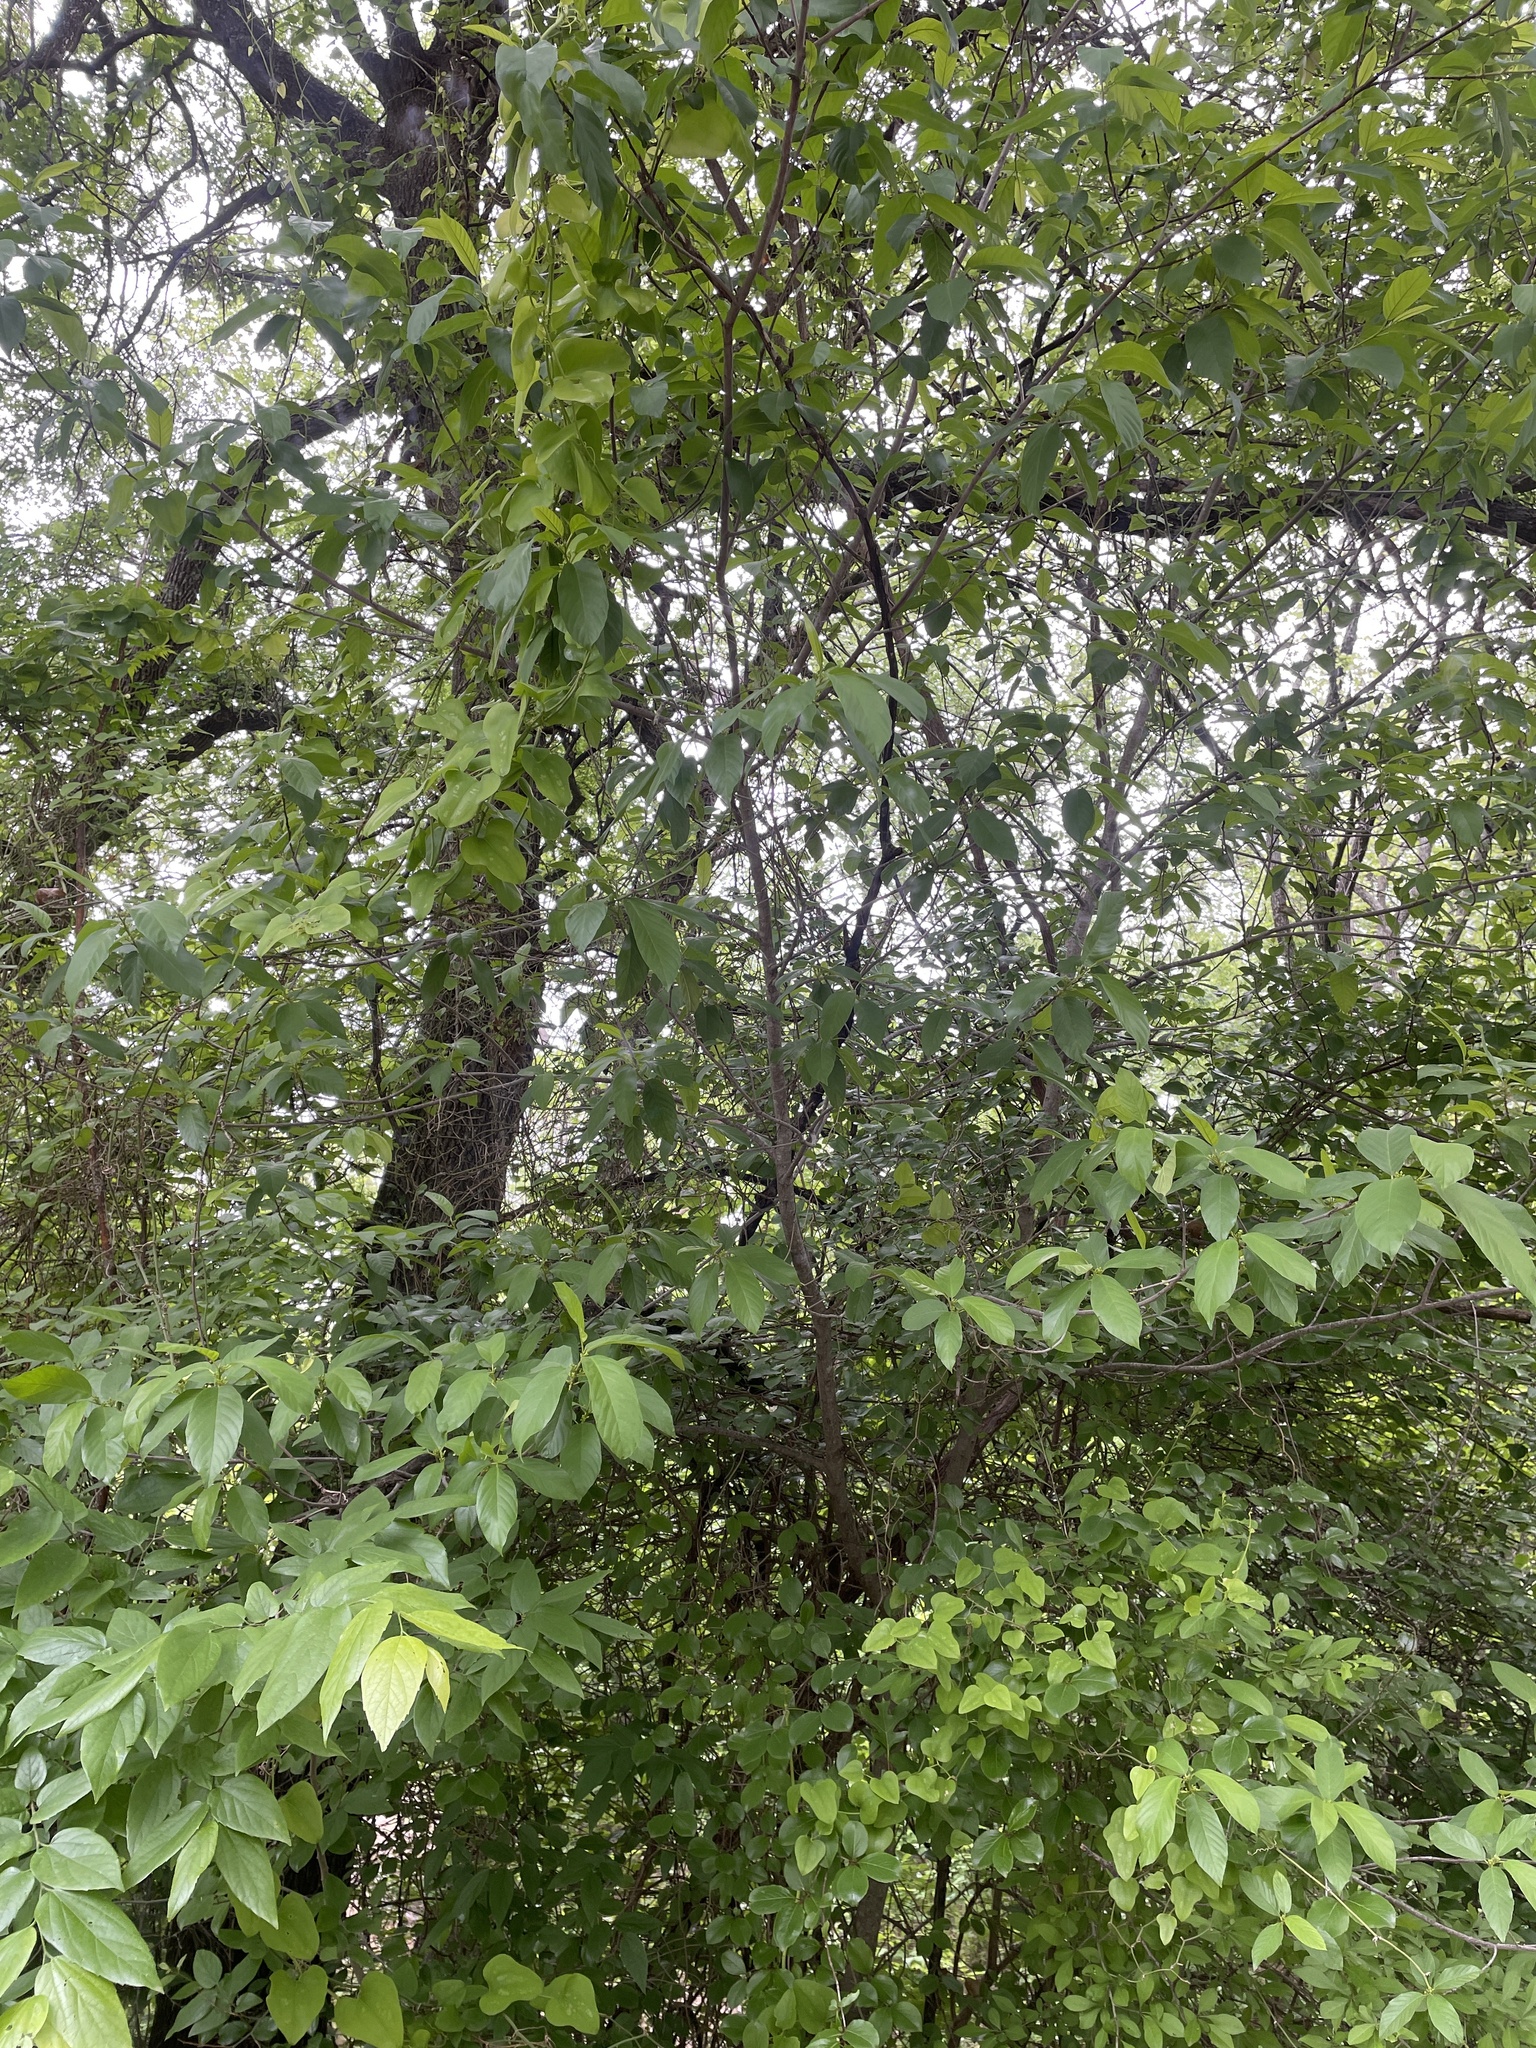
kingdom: Plantae
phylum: Tracheophyta
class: Magnoliopsida
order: Rosales
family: Rhamnaceae
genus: Frangula
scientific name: Frangula caroliniana
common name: Carolina buckthorn
